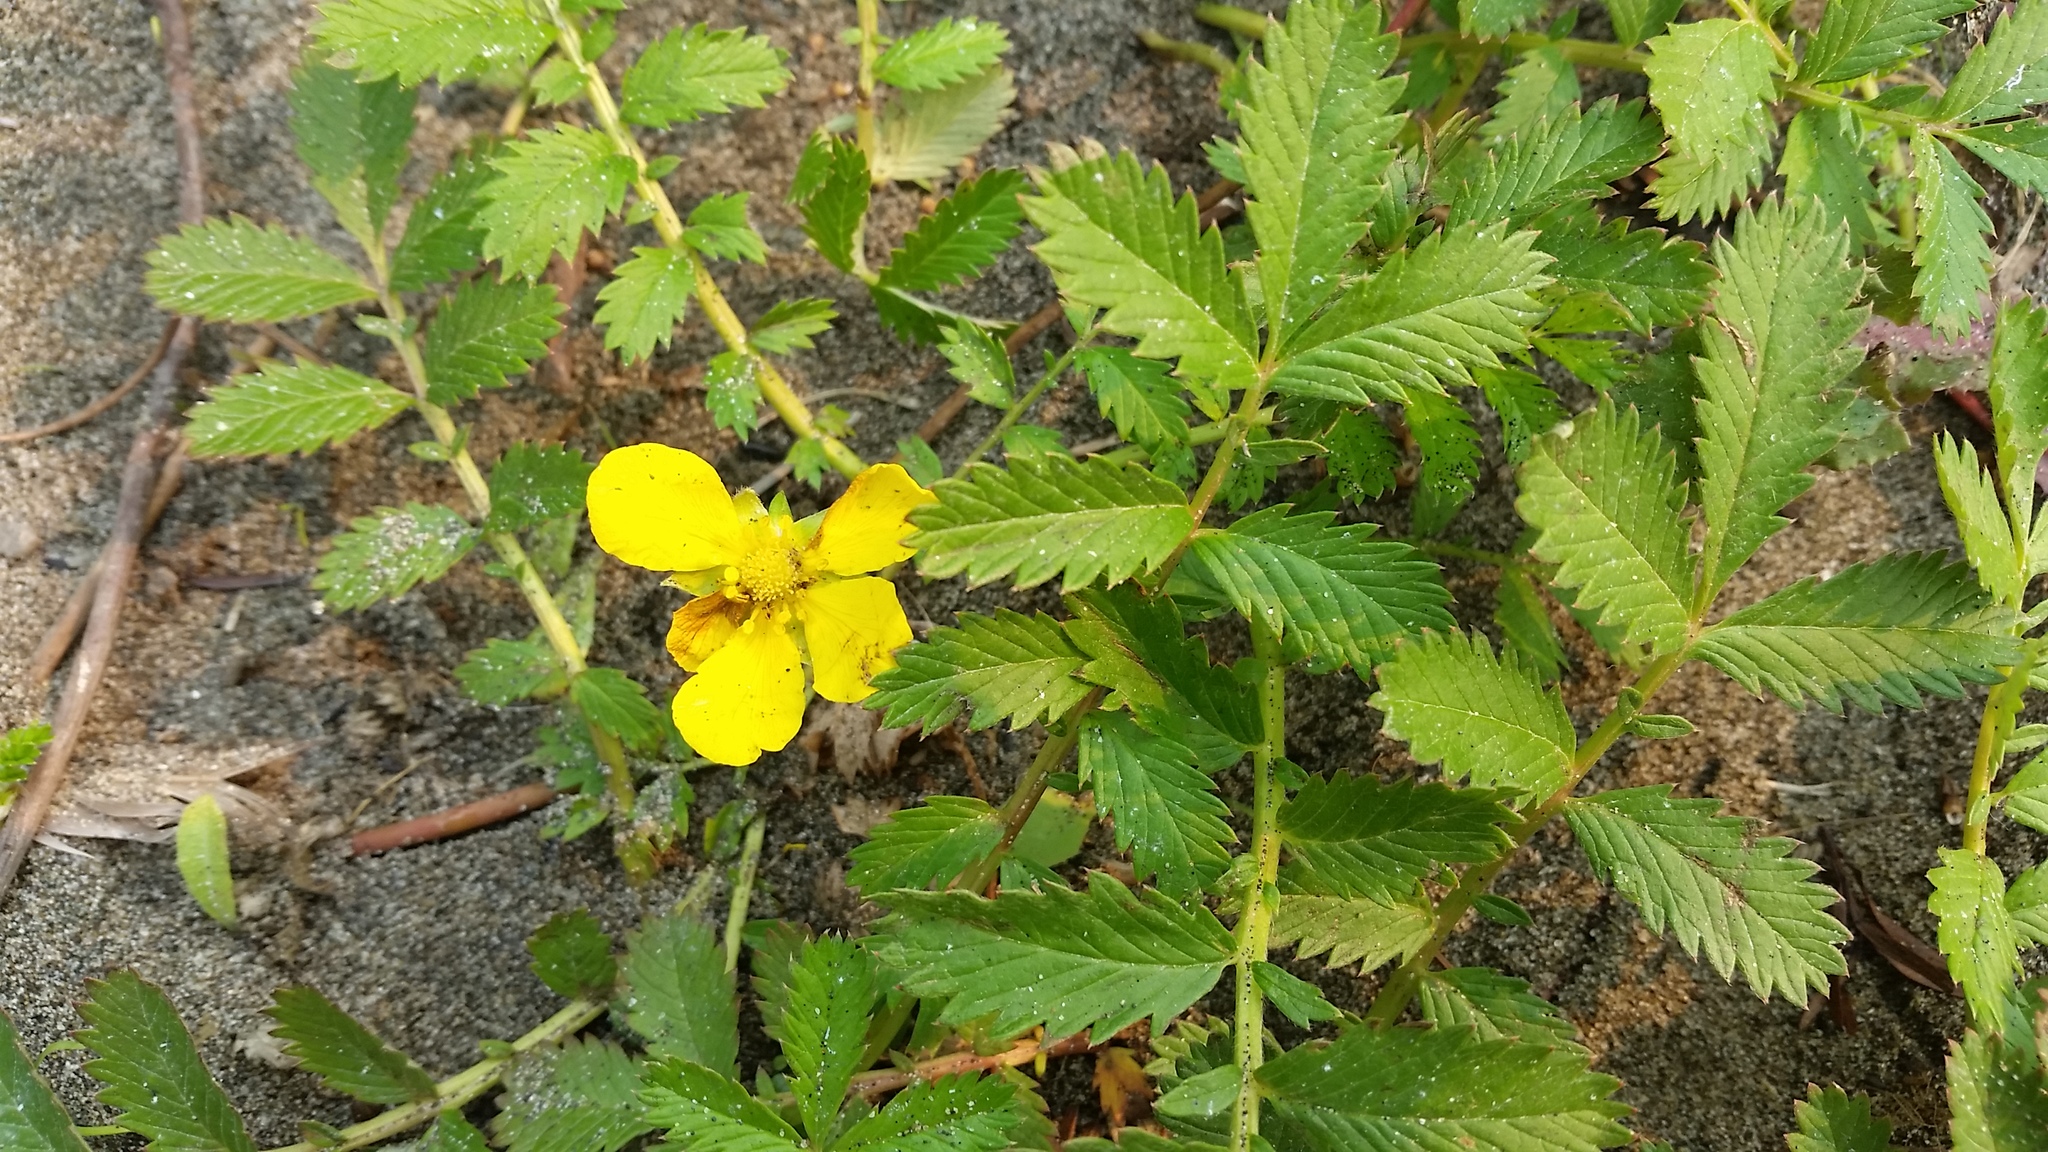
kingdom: Plantae
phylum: Tracheophyta
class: Magnoliopsida
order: Rosales
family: Rosaceae
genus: Argentina
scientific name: Argentina anserina
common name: Common silverweed
